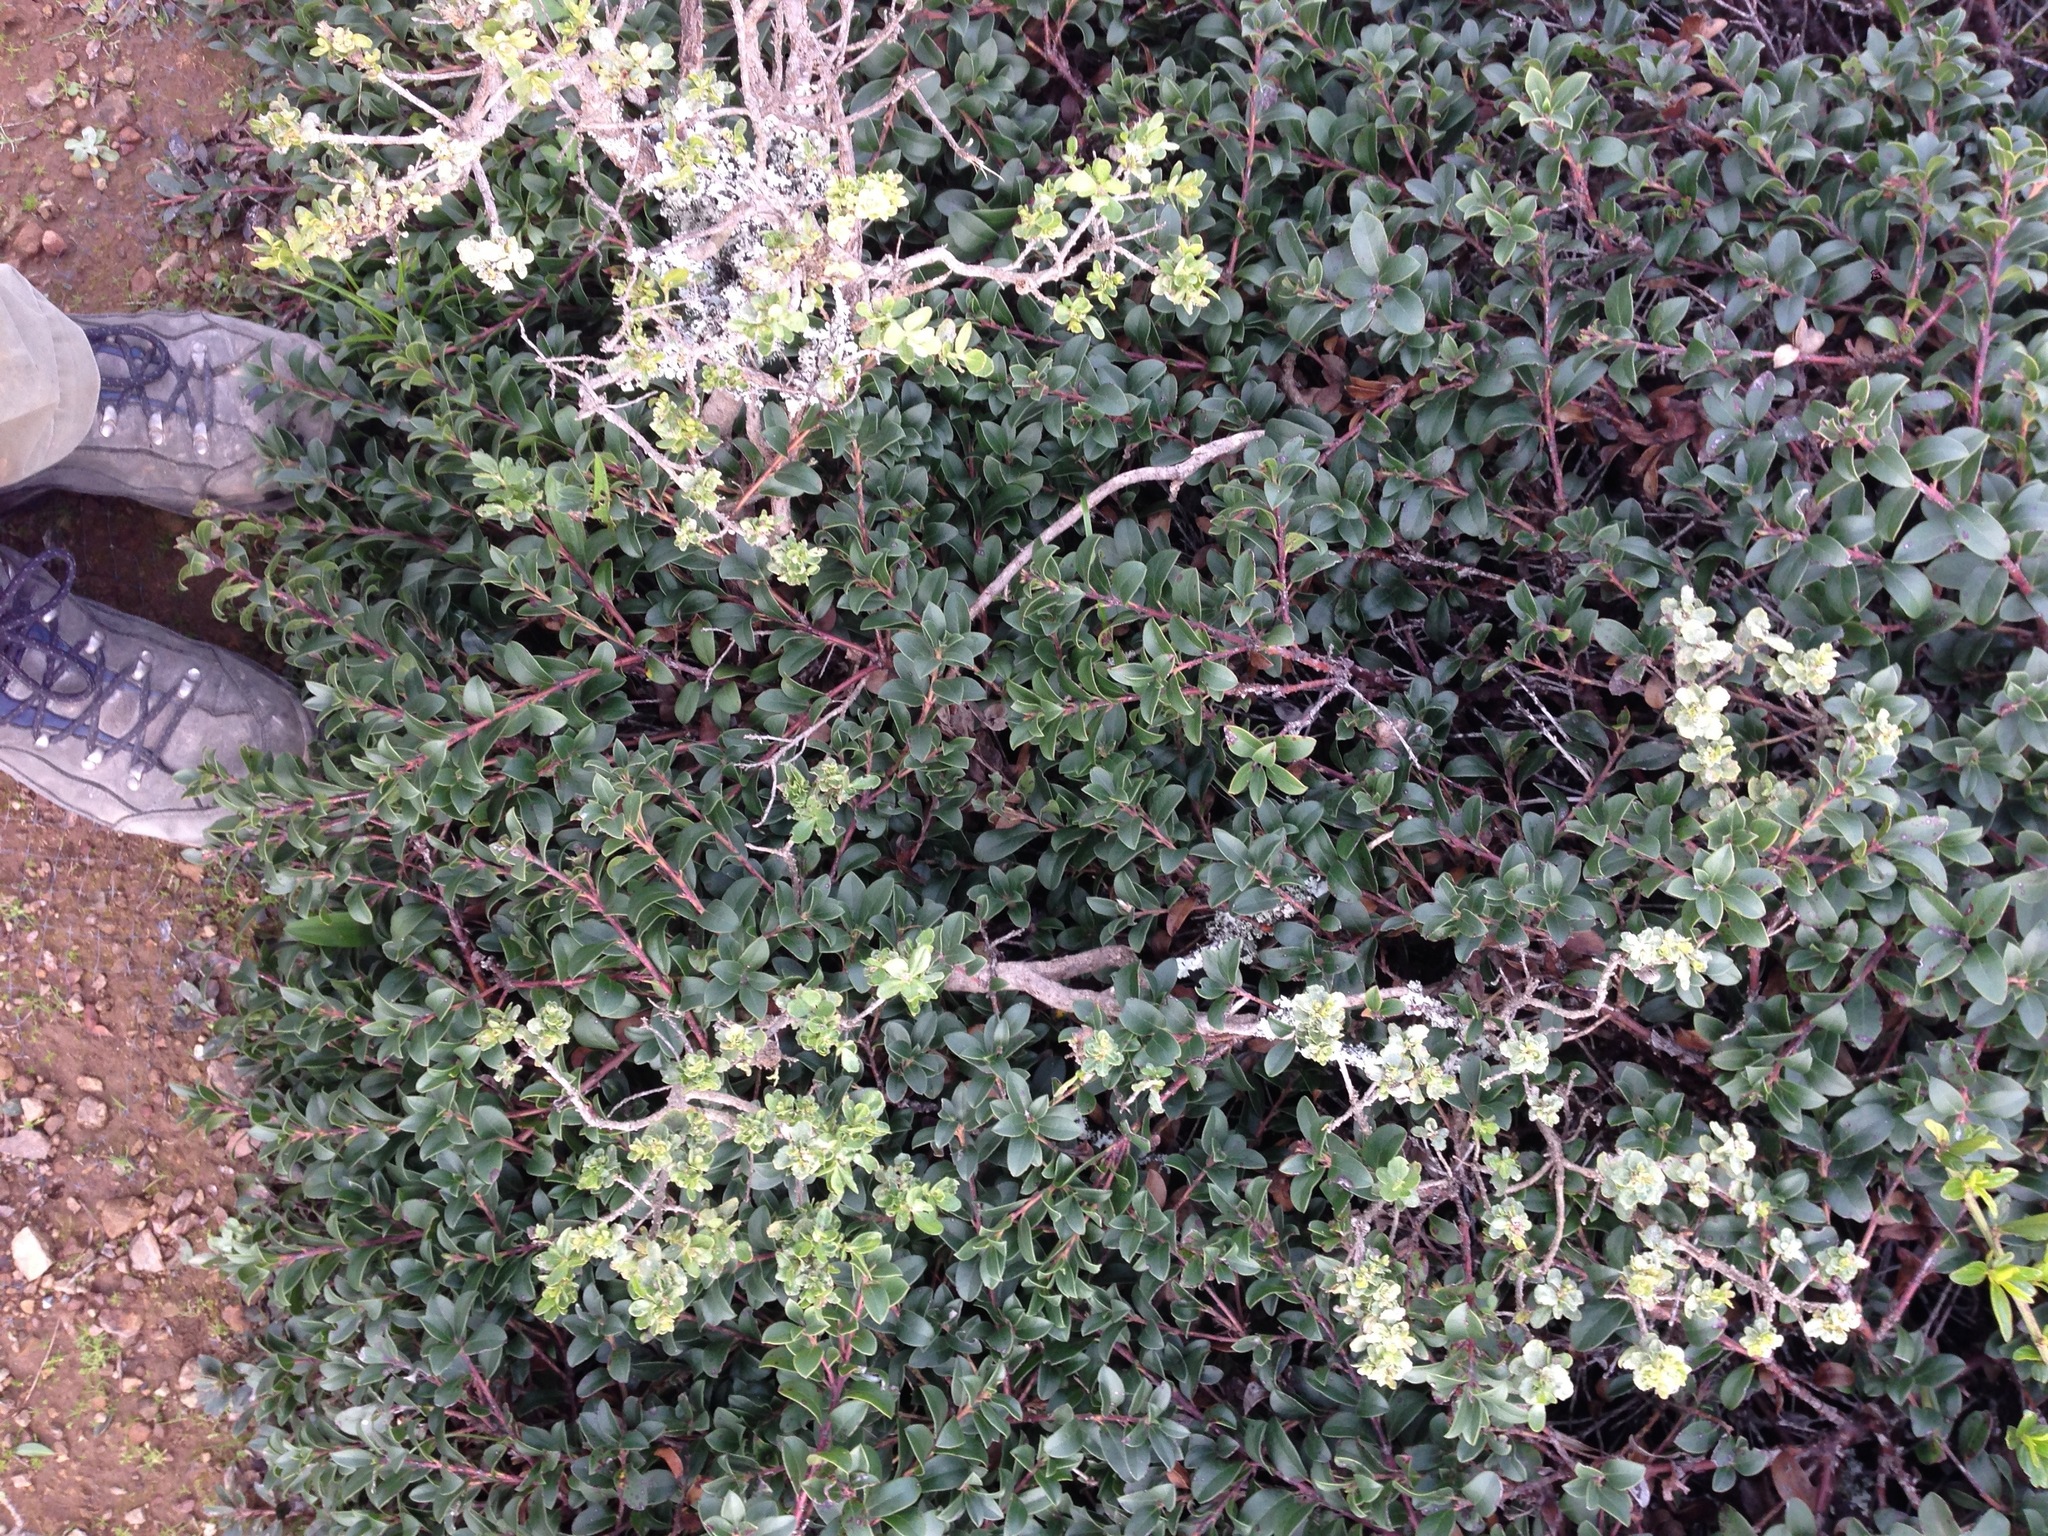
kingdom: Plantae
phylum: Tracheophyta
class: Magnoliopsida
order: Ericales
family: Ericaceae
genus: Vaccinium
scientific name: Vaccinium ovatum
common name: California-huckleberry
